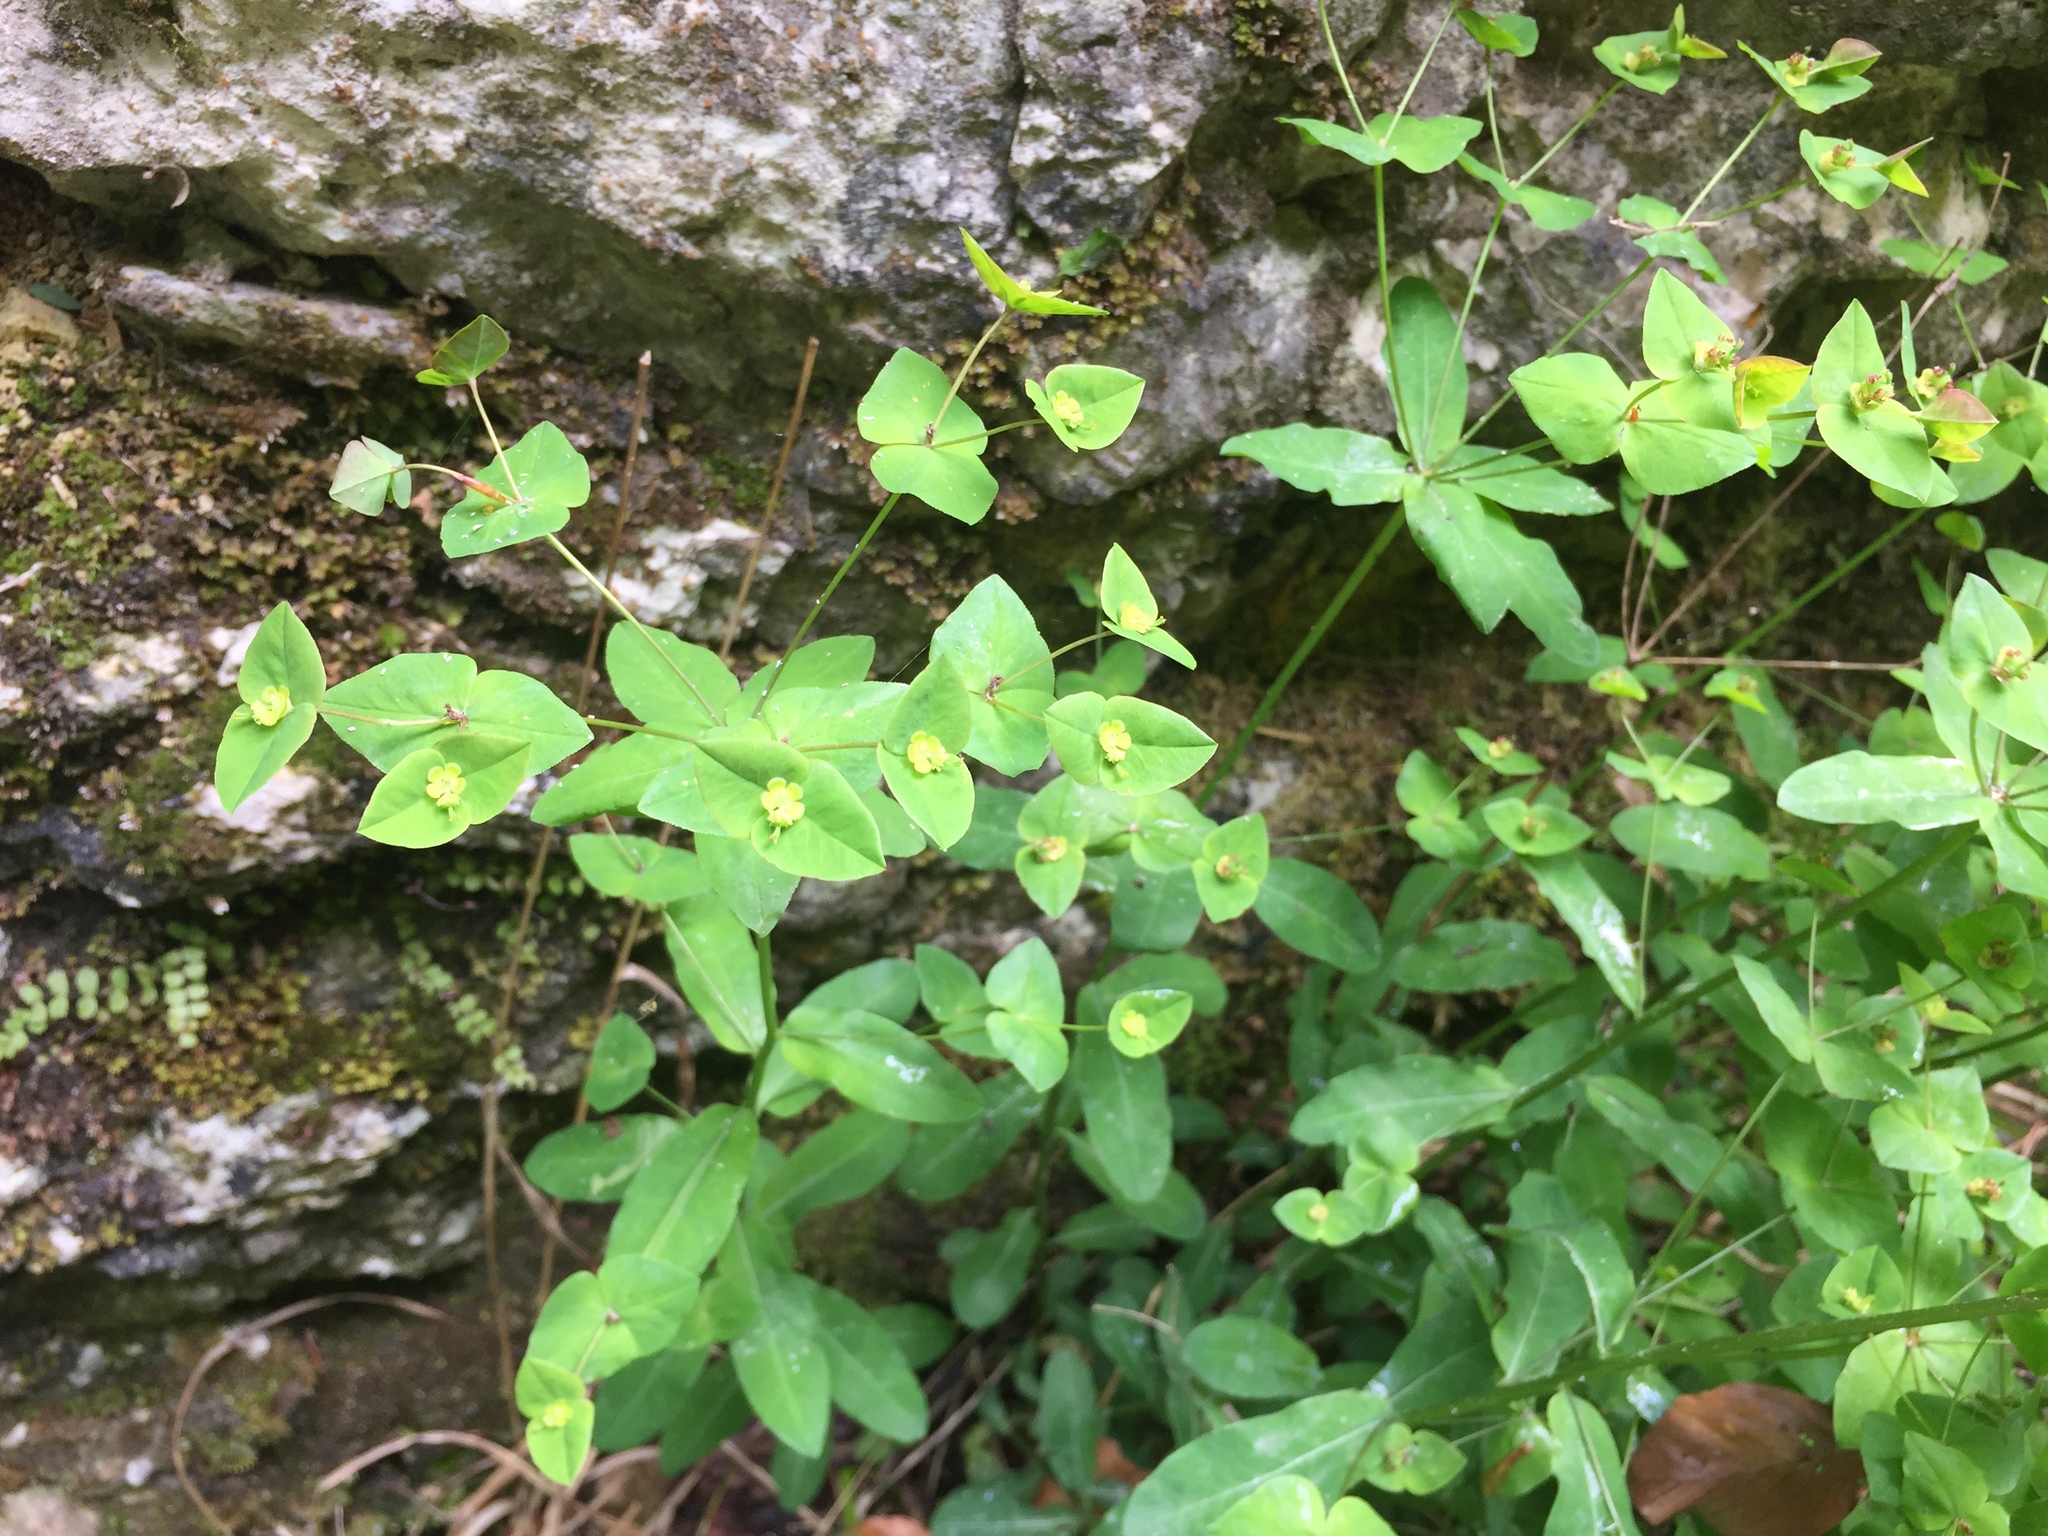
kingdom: Plantae
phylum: Tracheophyta
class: Magnoliopsida
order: Malpighiales
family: Euphorbiaceae
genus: Euphorbia
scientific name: Euphorbia dulcis
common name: Sweet spurge
